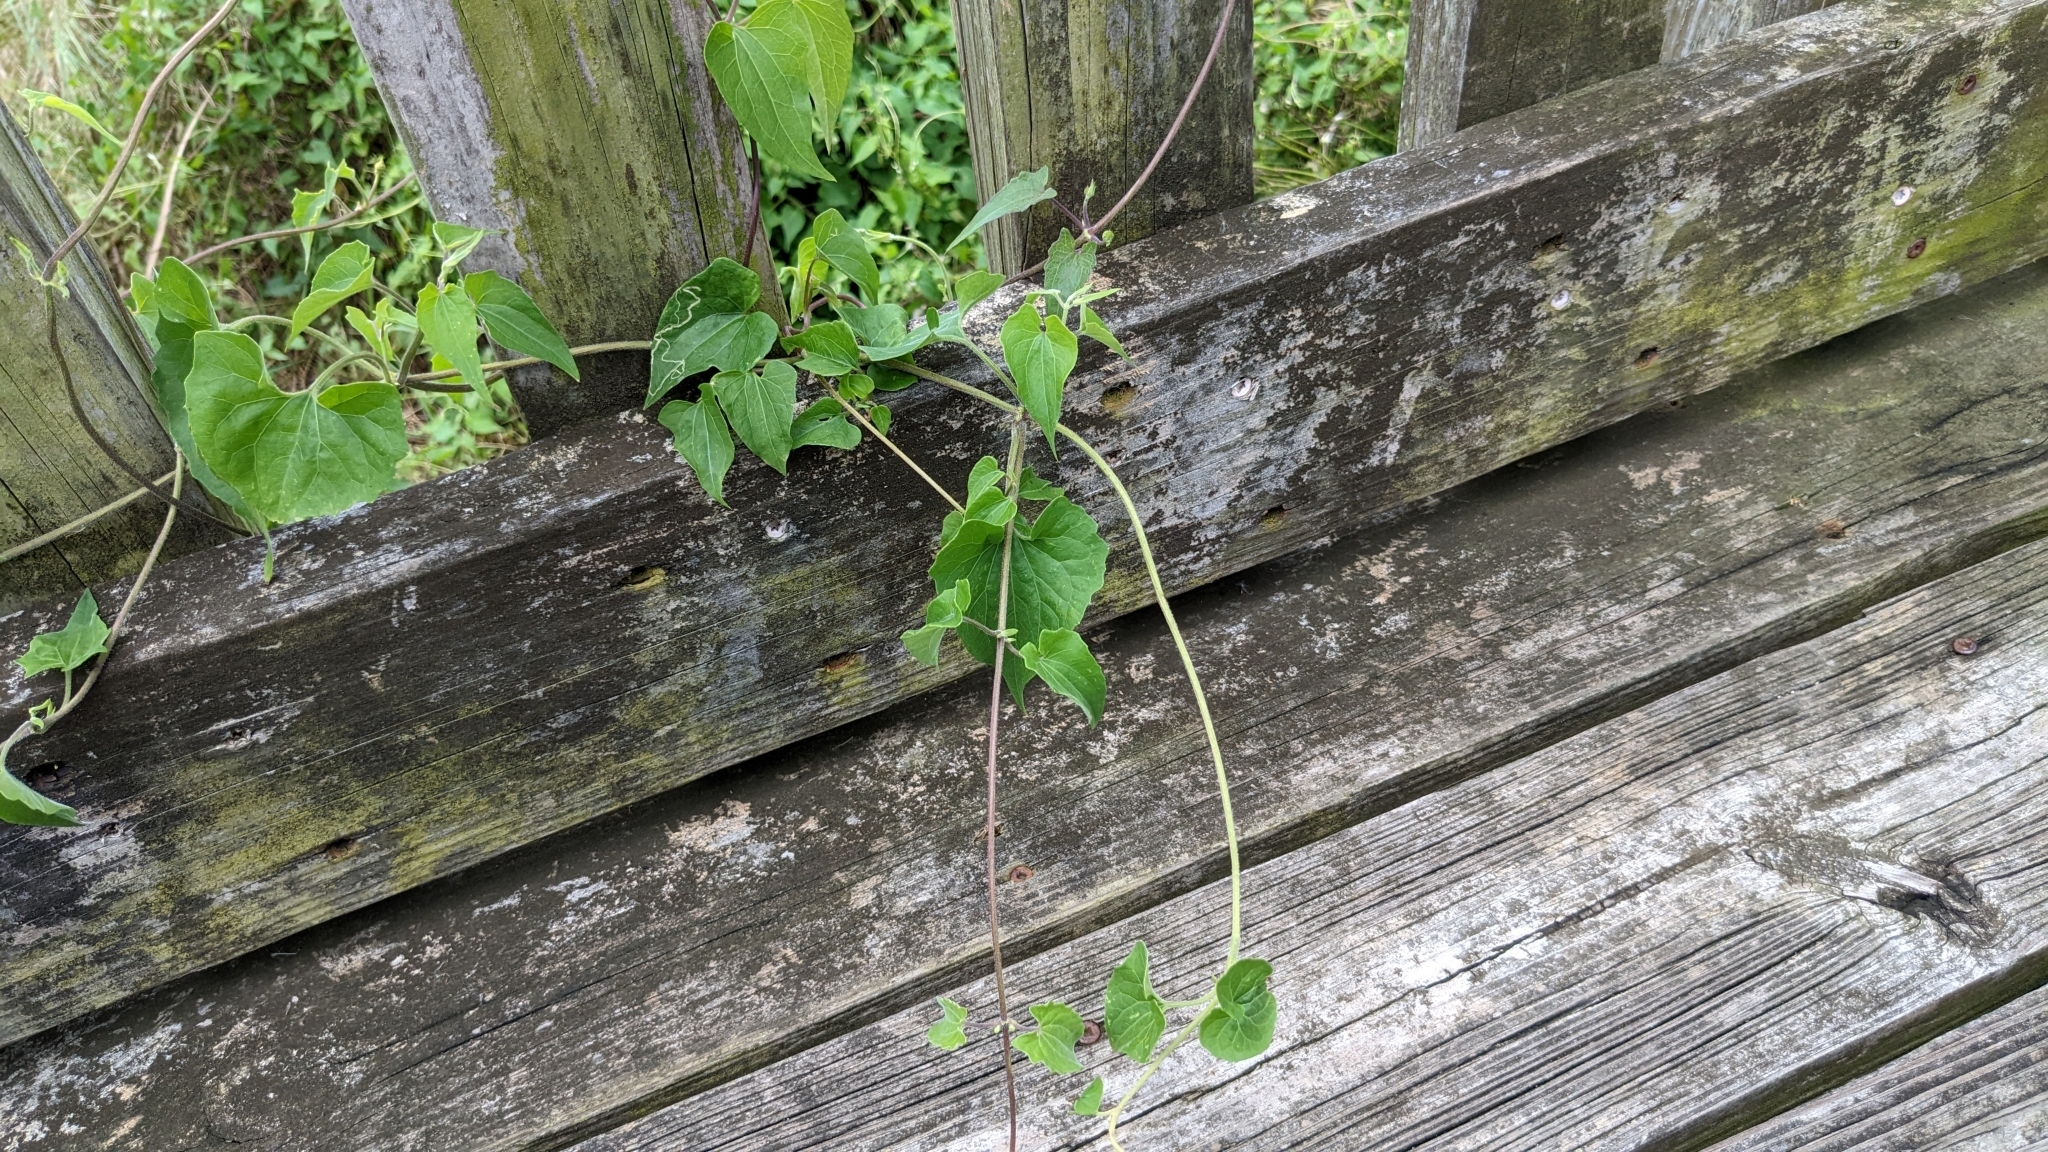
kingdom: Plantae
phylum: Tracheophyta
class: Magnoliopsida
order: Asterales
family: Asteraceae
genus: Mikania
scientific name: Mikania scandens
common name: Climbing hempvine
